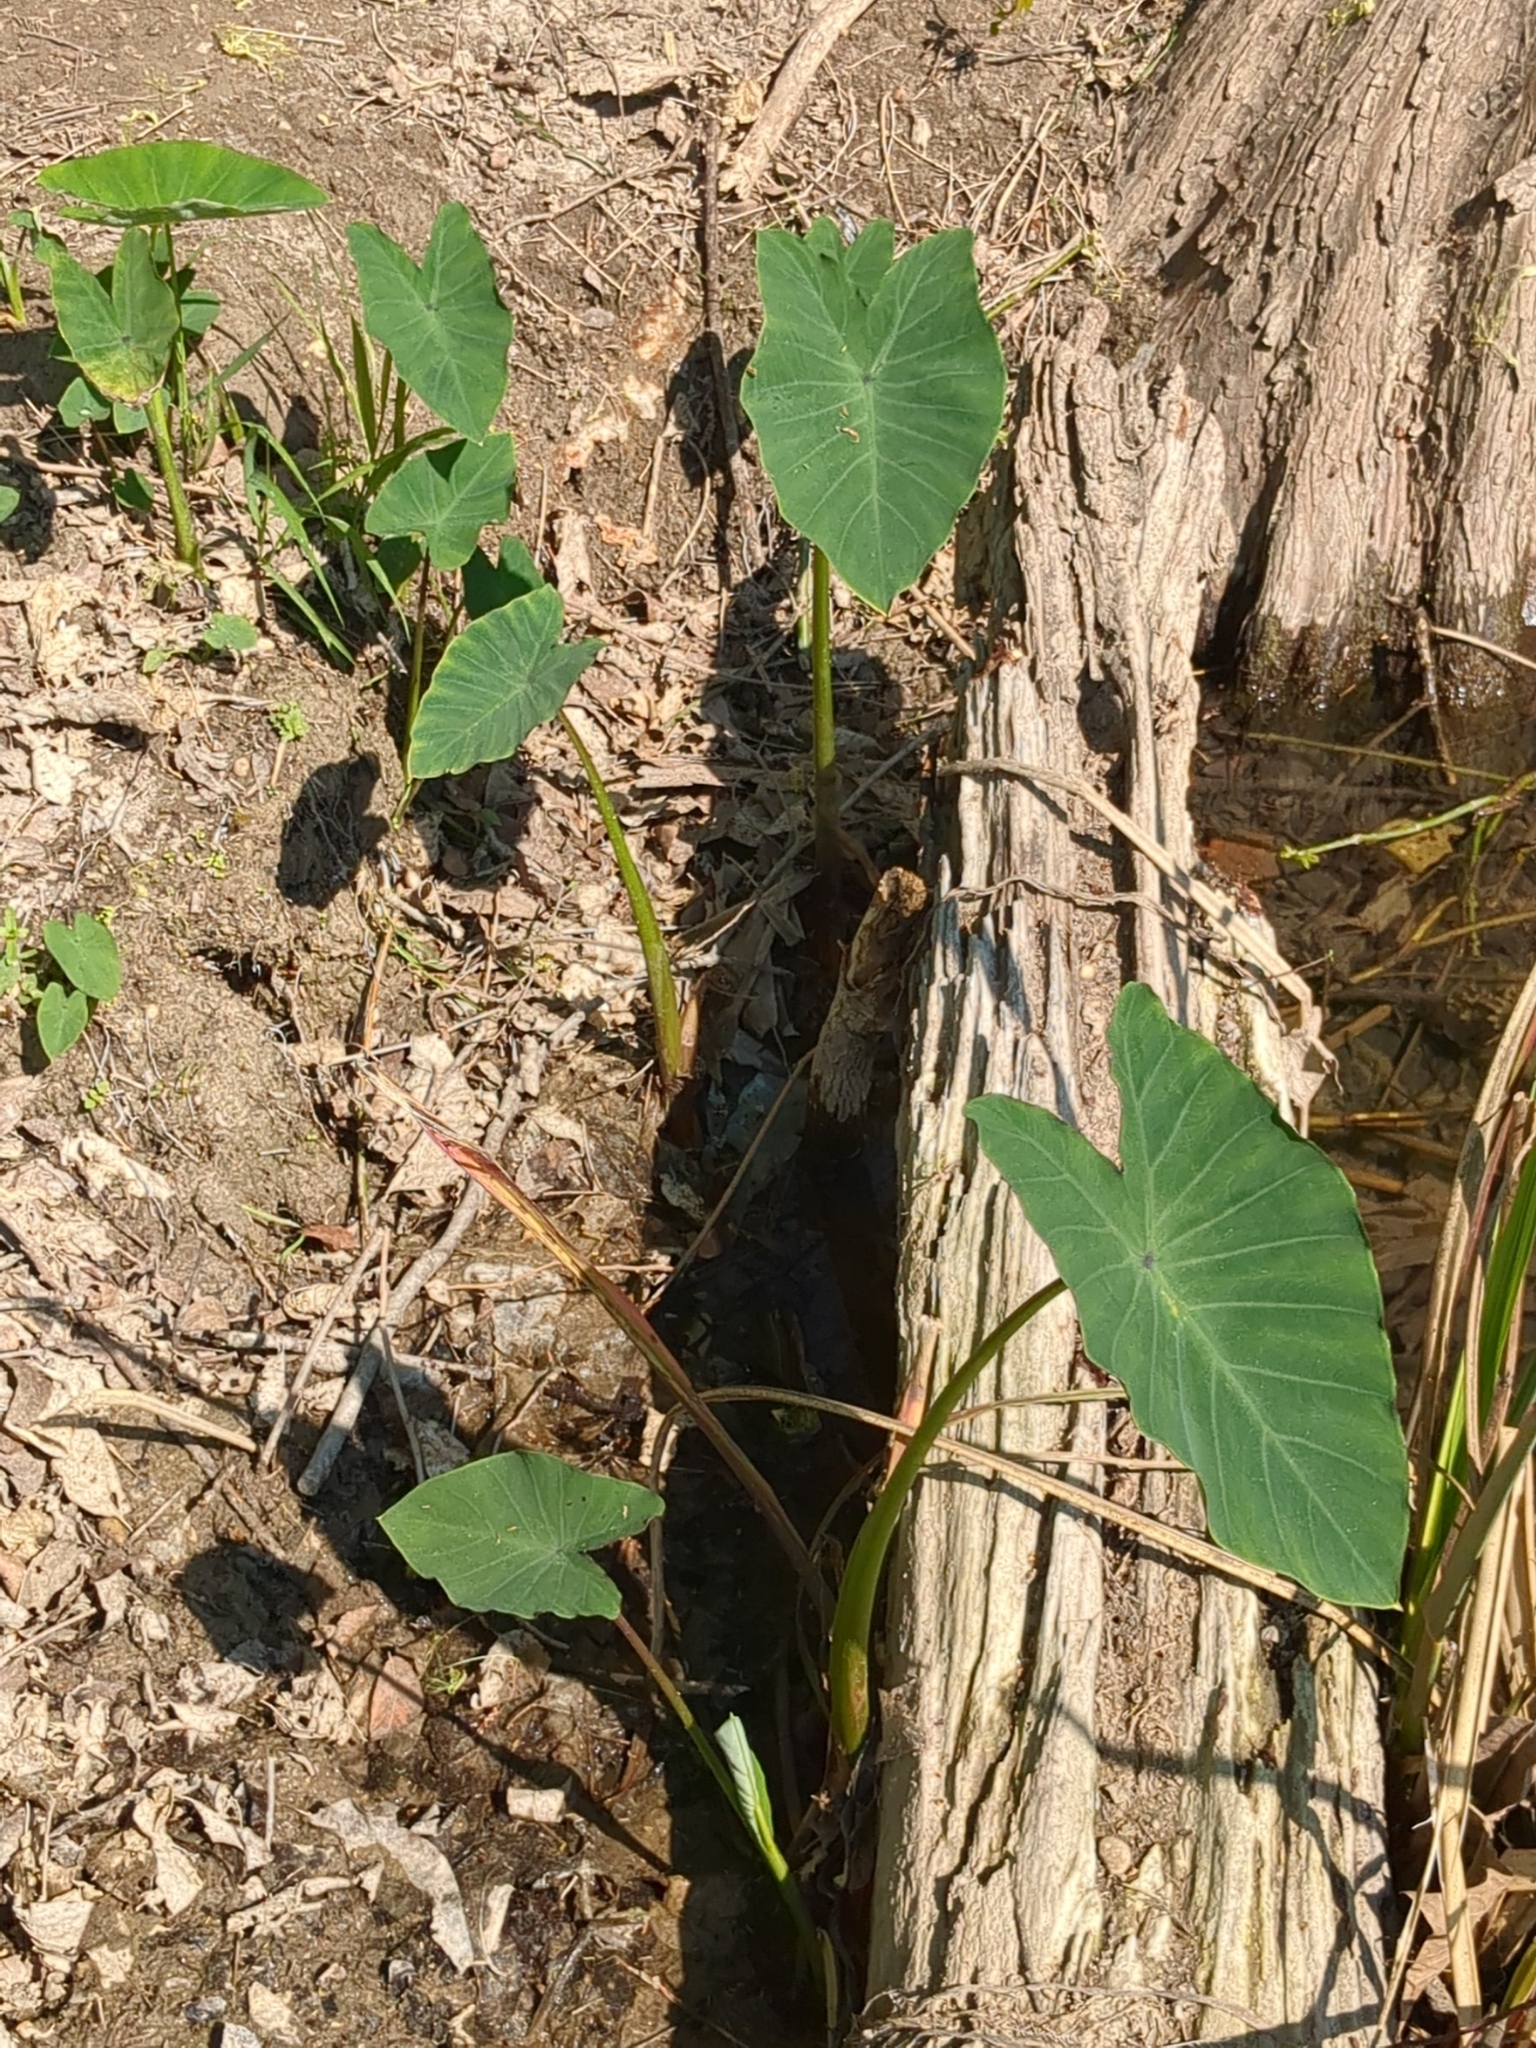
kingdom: Plantae
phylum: Tracheophyta
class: Liliopsida
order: Alismatales
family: Araceae
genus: Colocasia
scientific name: Colocasia esculenta
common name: Taro
